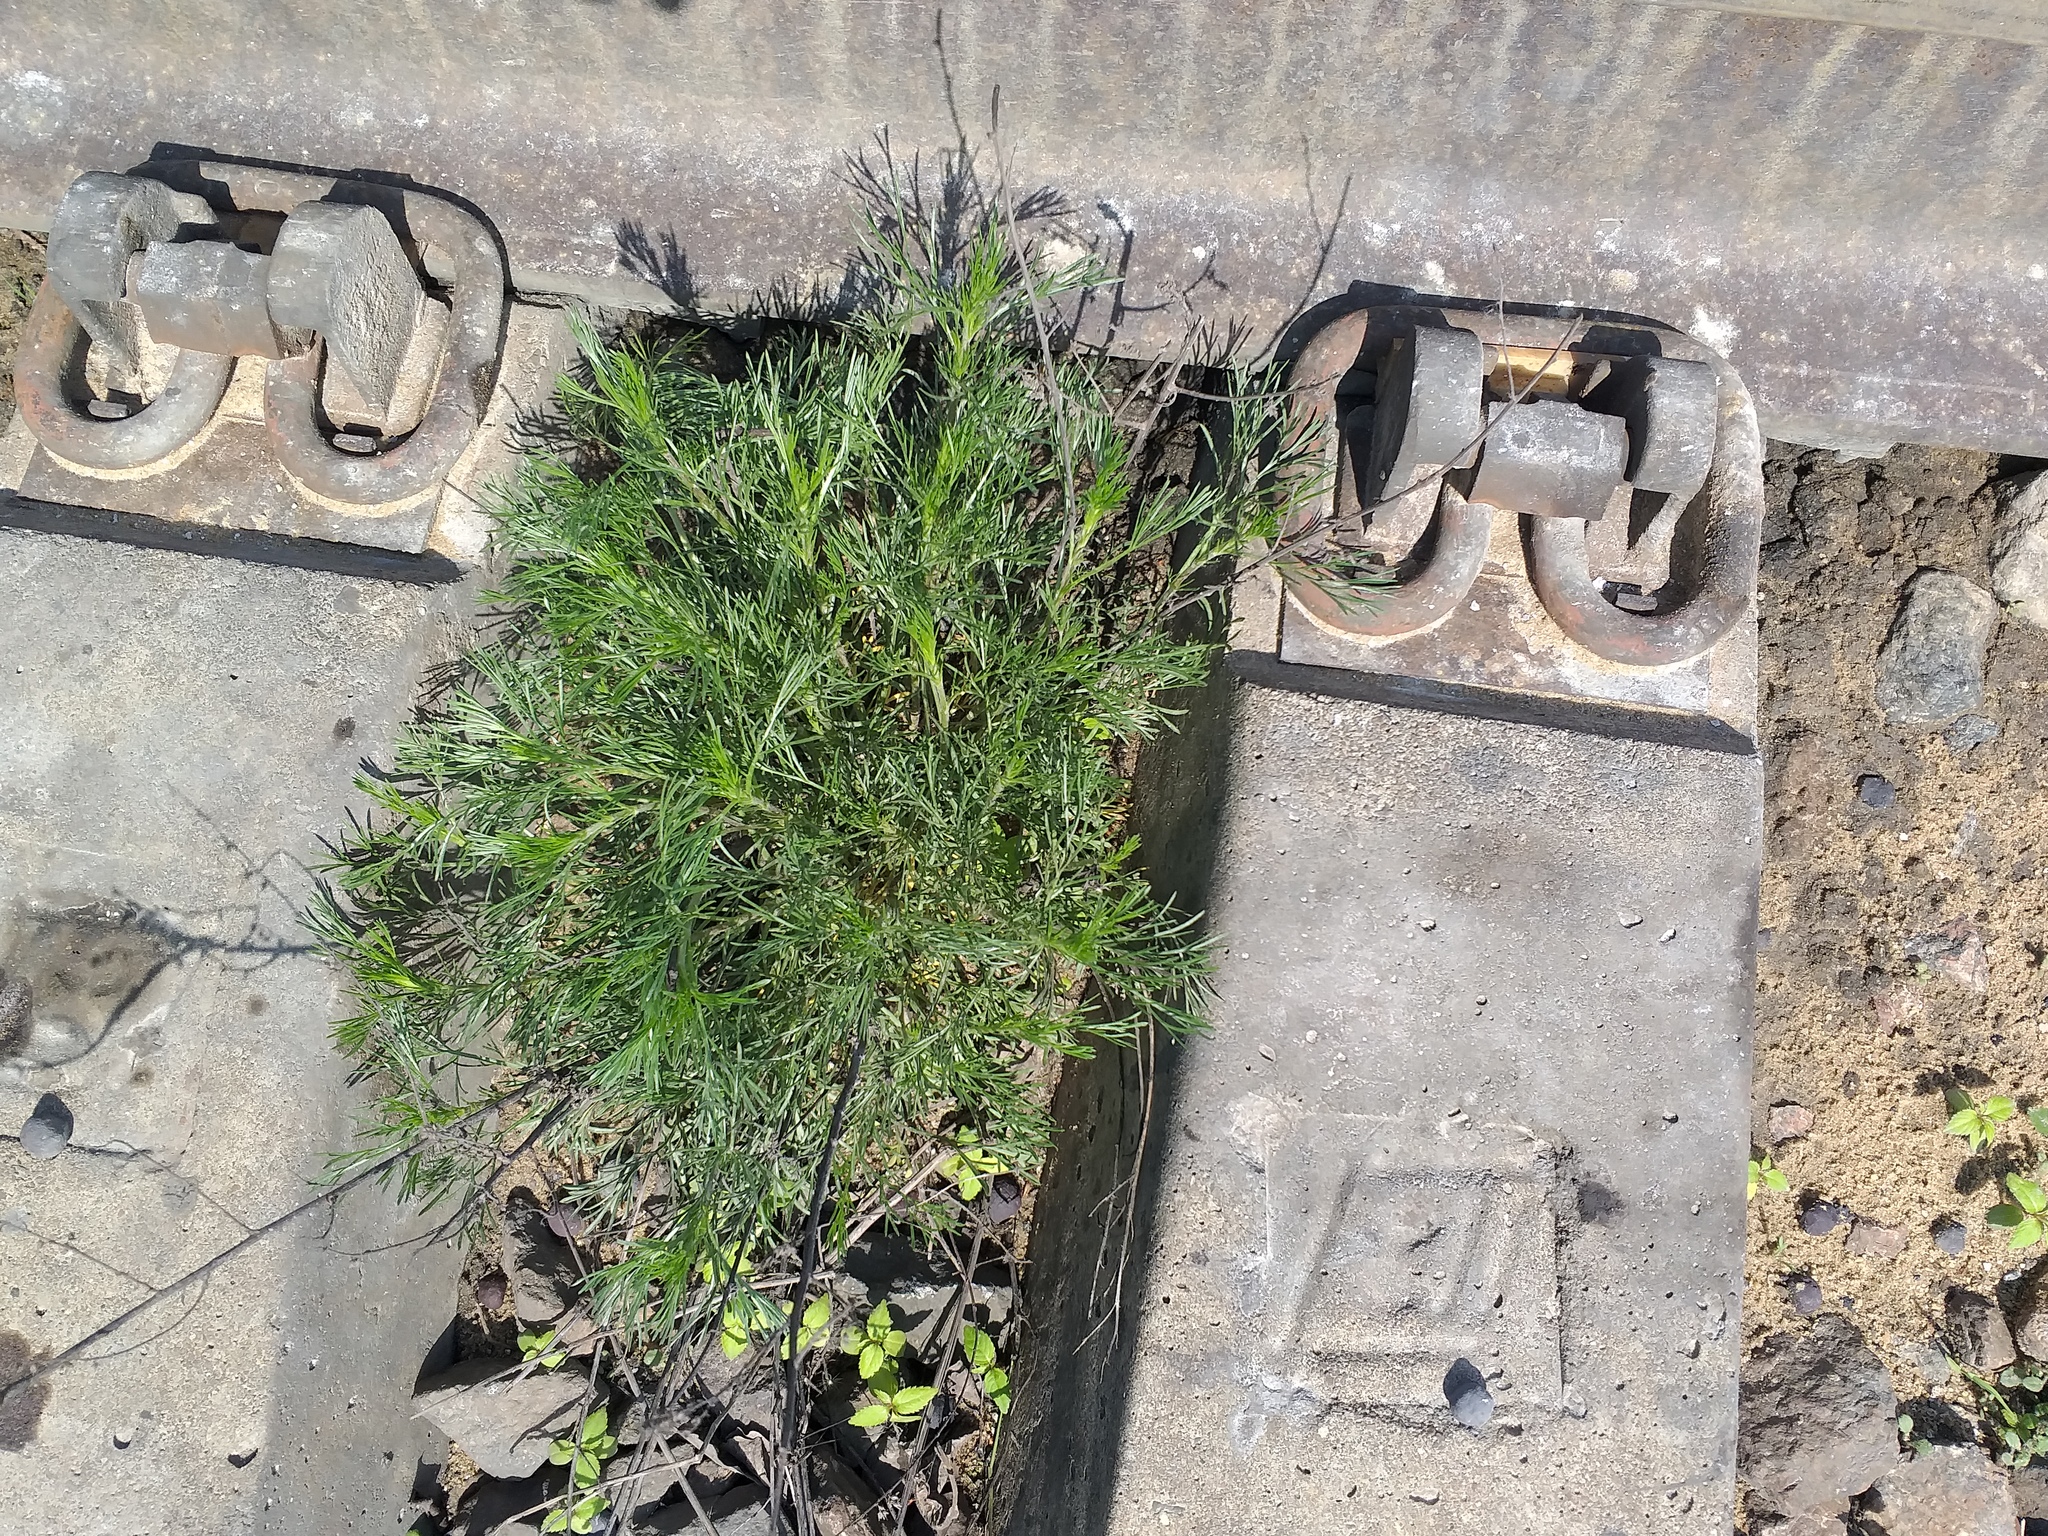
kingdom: Plantae
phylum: Tracheophyta
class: Magnoliopsida
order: Asterales
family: Asteraceae
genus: Artemisia
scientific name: Artemisia campestris
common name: Field wormwood
